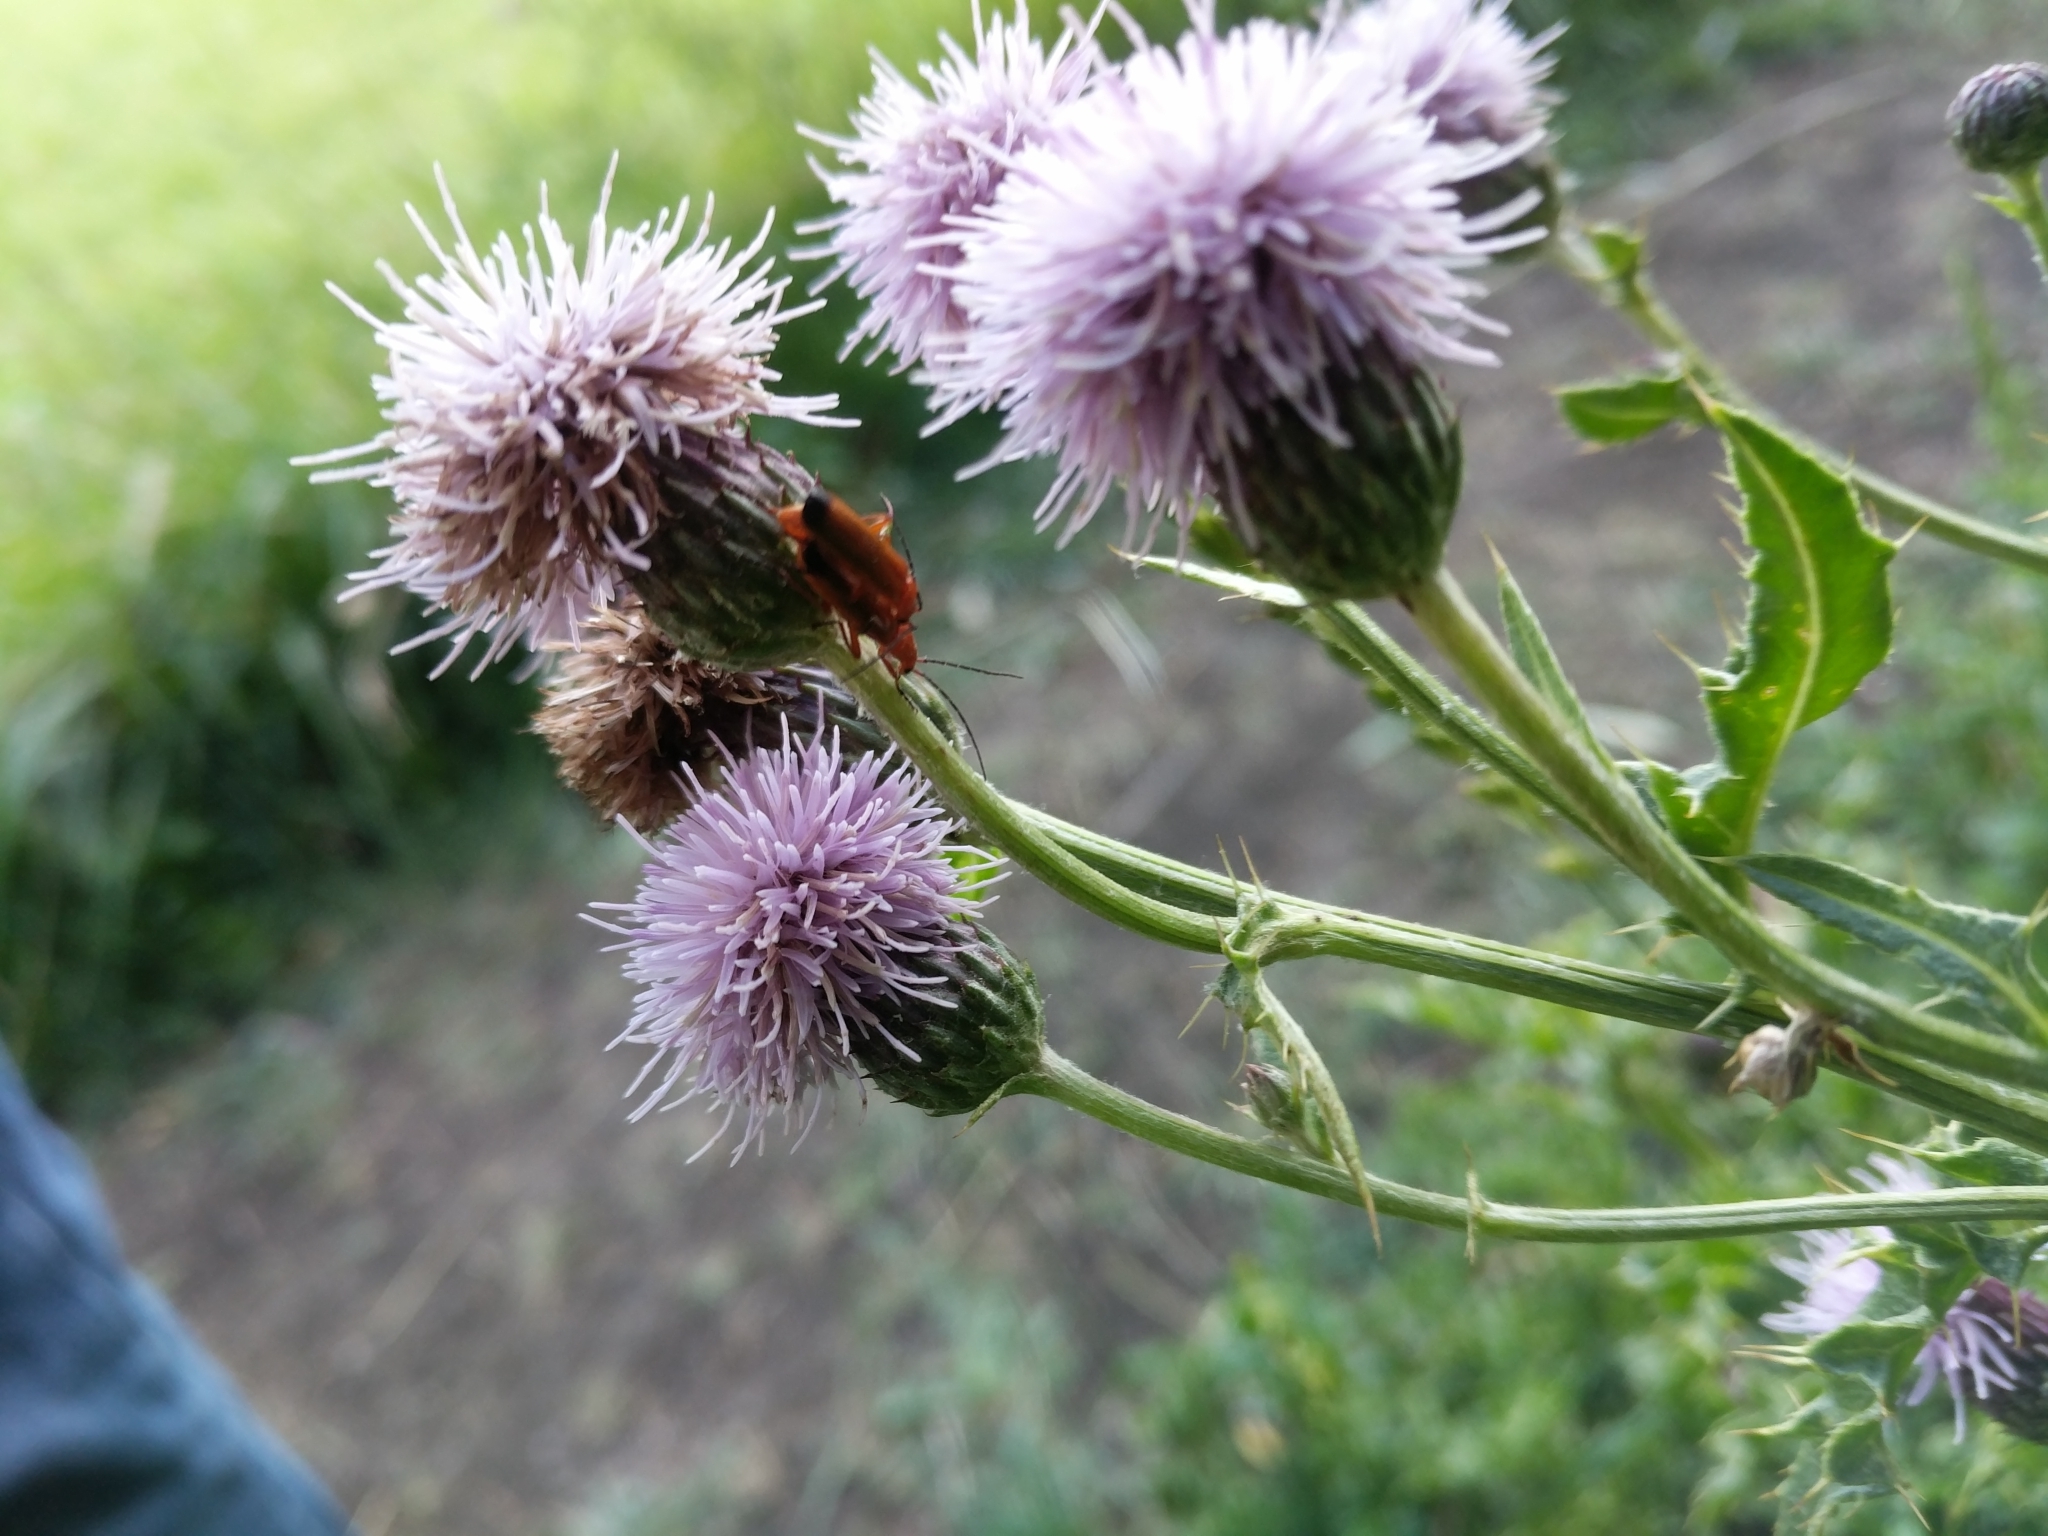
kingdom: Animalia
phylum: Arthropoda
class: Insecta
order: Coleoptera
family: Cantharidae
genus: Rhagonycha
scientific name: Rhagonycha fulva
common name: Common red soldier beetle
